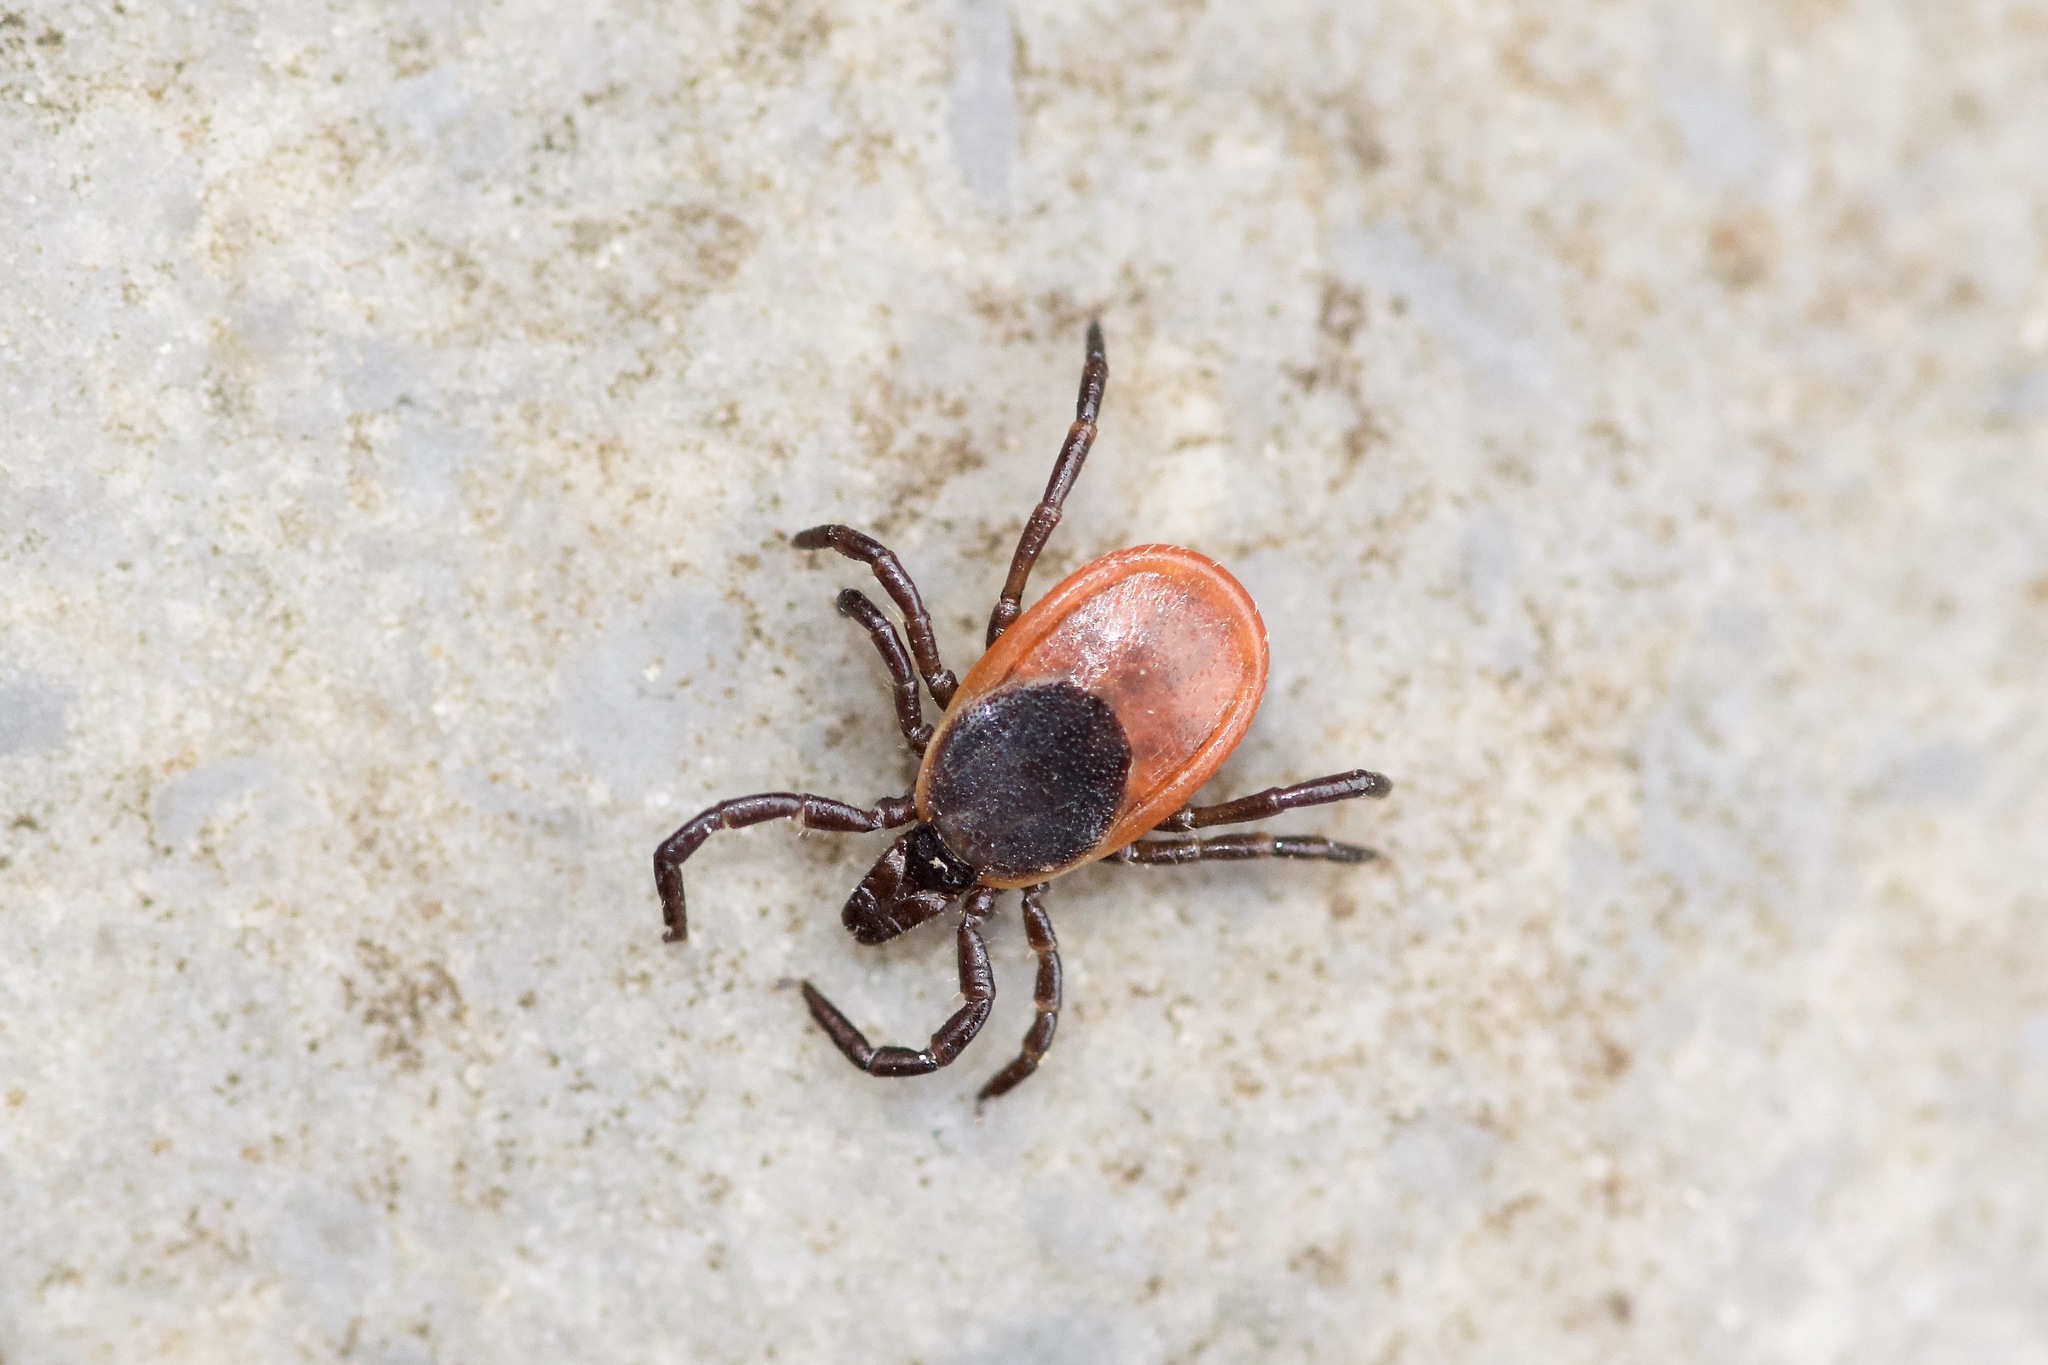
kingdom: Animalia
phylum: Arthropoda
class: Arachnida
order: Ixodida
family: Ixodidae
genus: Ixodes
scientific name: Ixodes scapularis
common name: Black legged tick
